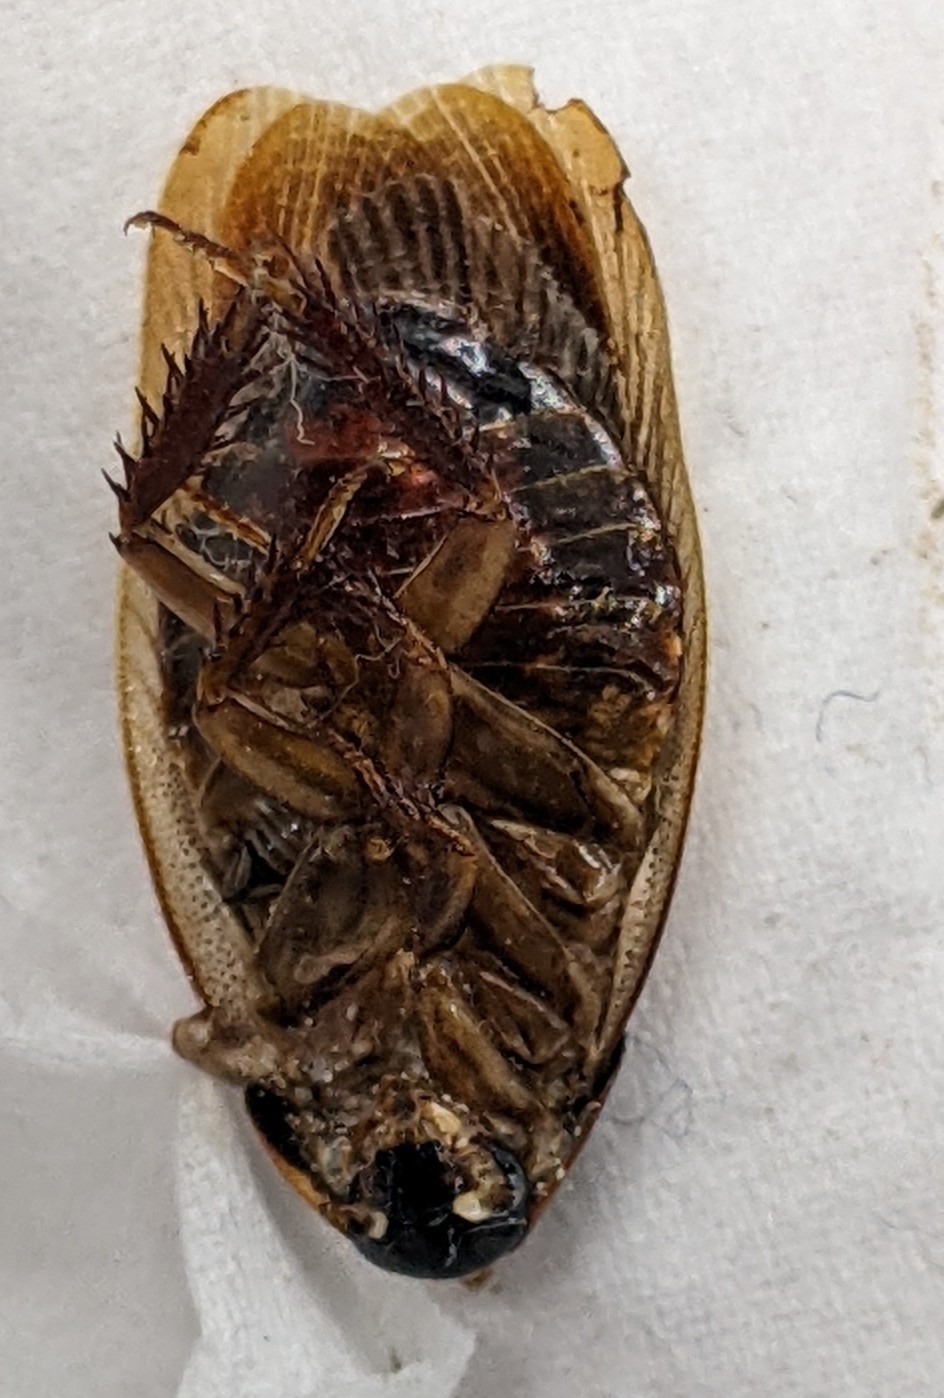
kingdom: Animalia
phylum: Arthropoda
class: Insecta
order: Blattodea
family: Blaberidae
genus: Pycnoscelus
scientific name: Pycnoscelus surinamensis
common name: Surinam cockroach
